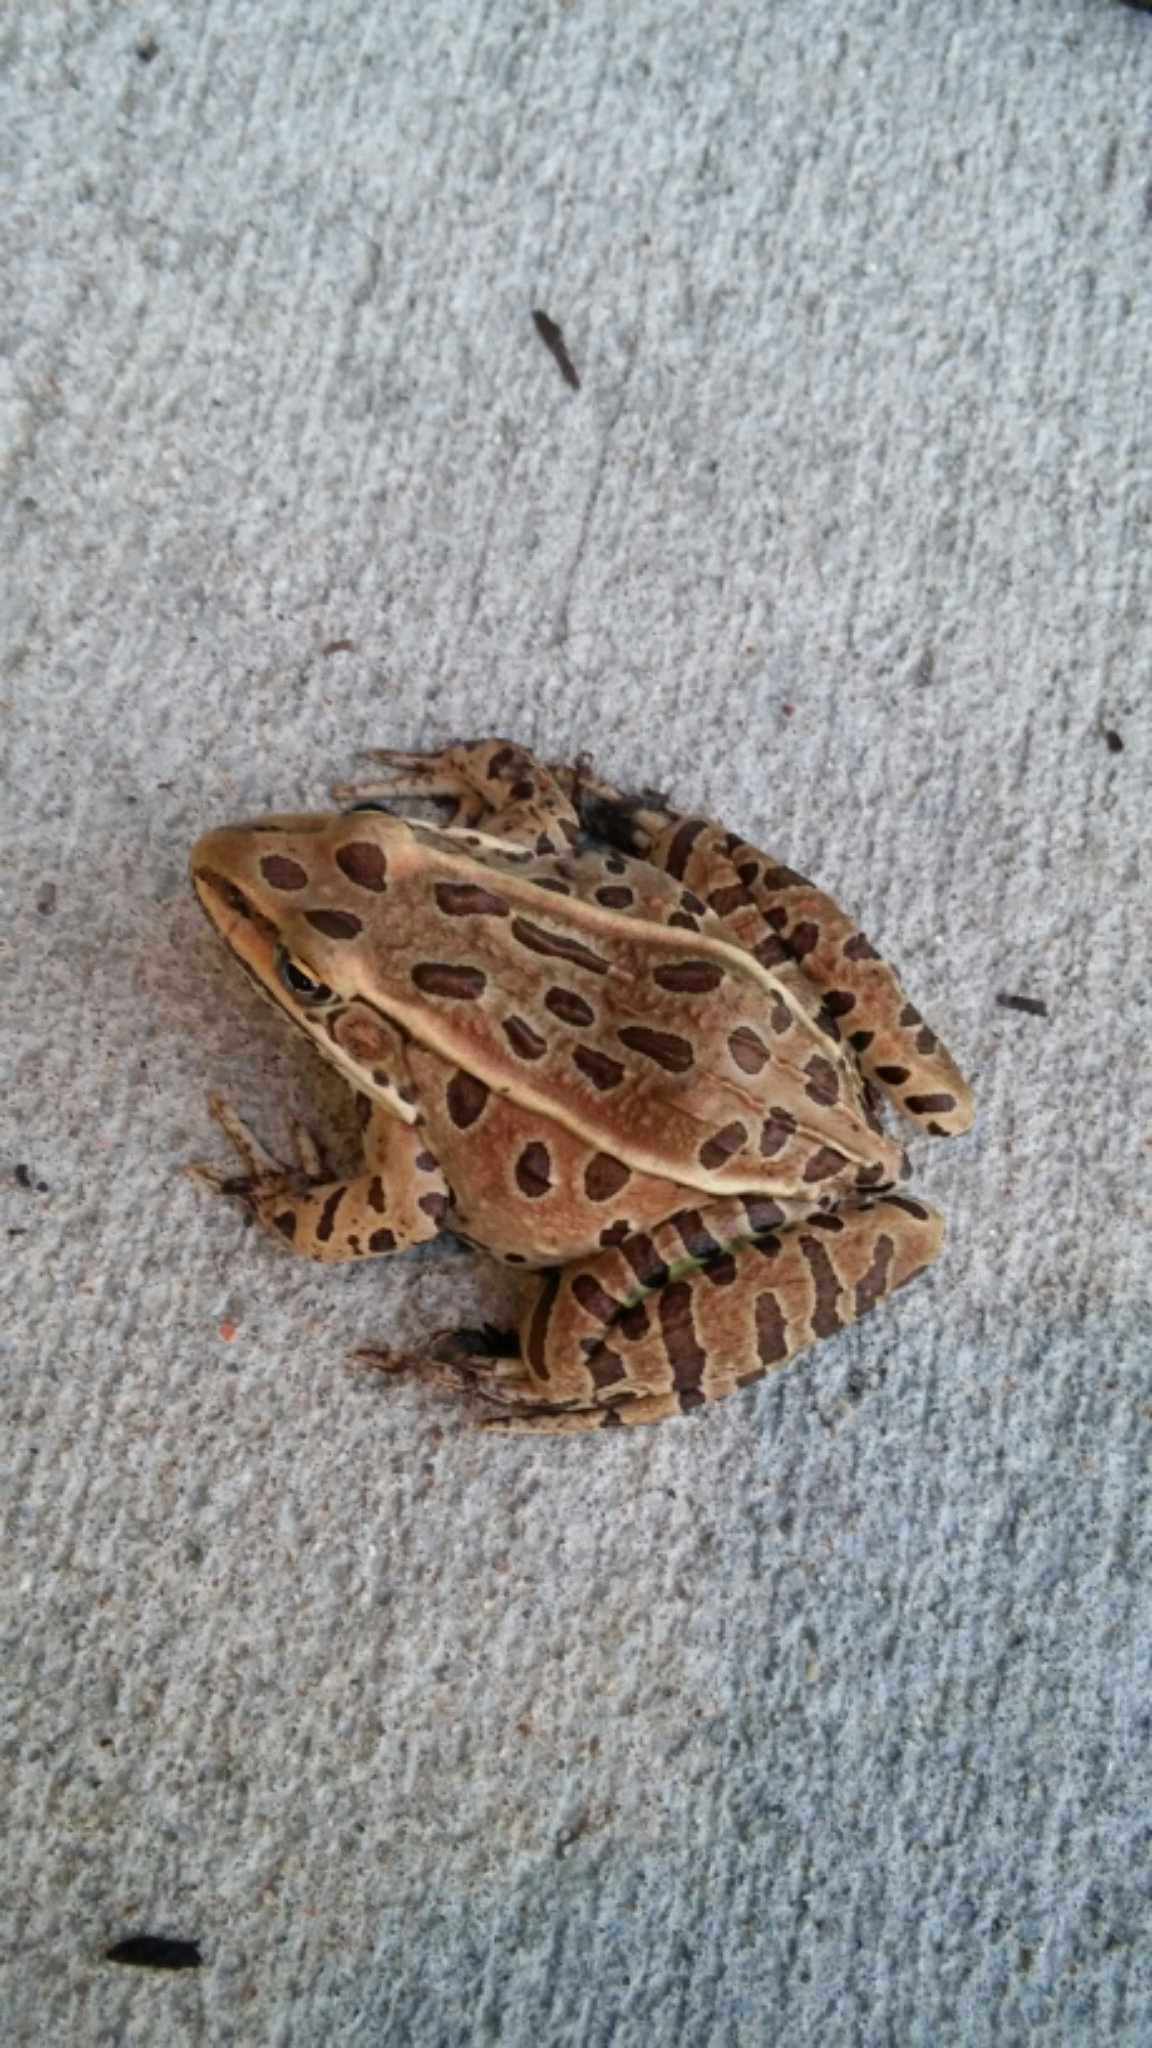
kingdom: Animalia
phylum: Chordata
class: Amphibia
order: Anura
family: Ranidae
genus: Lithobates
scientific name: Lithobates pipiens
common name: Northern leopard frog
